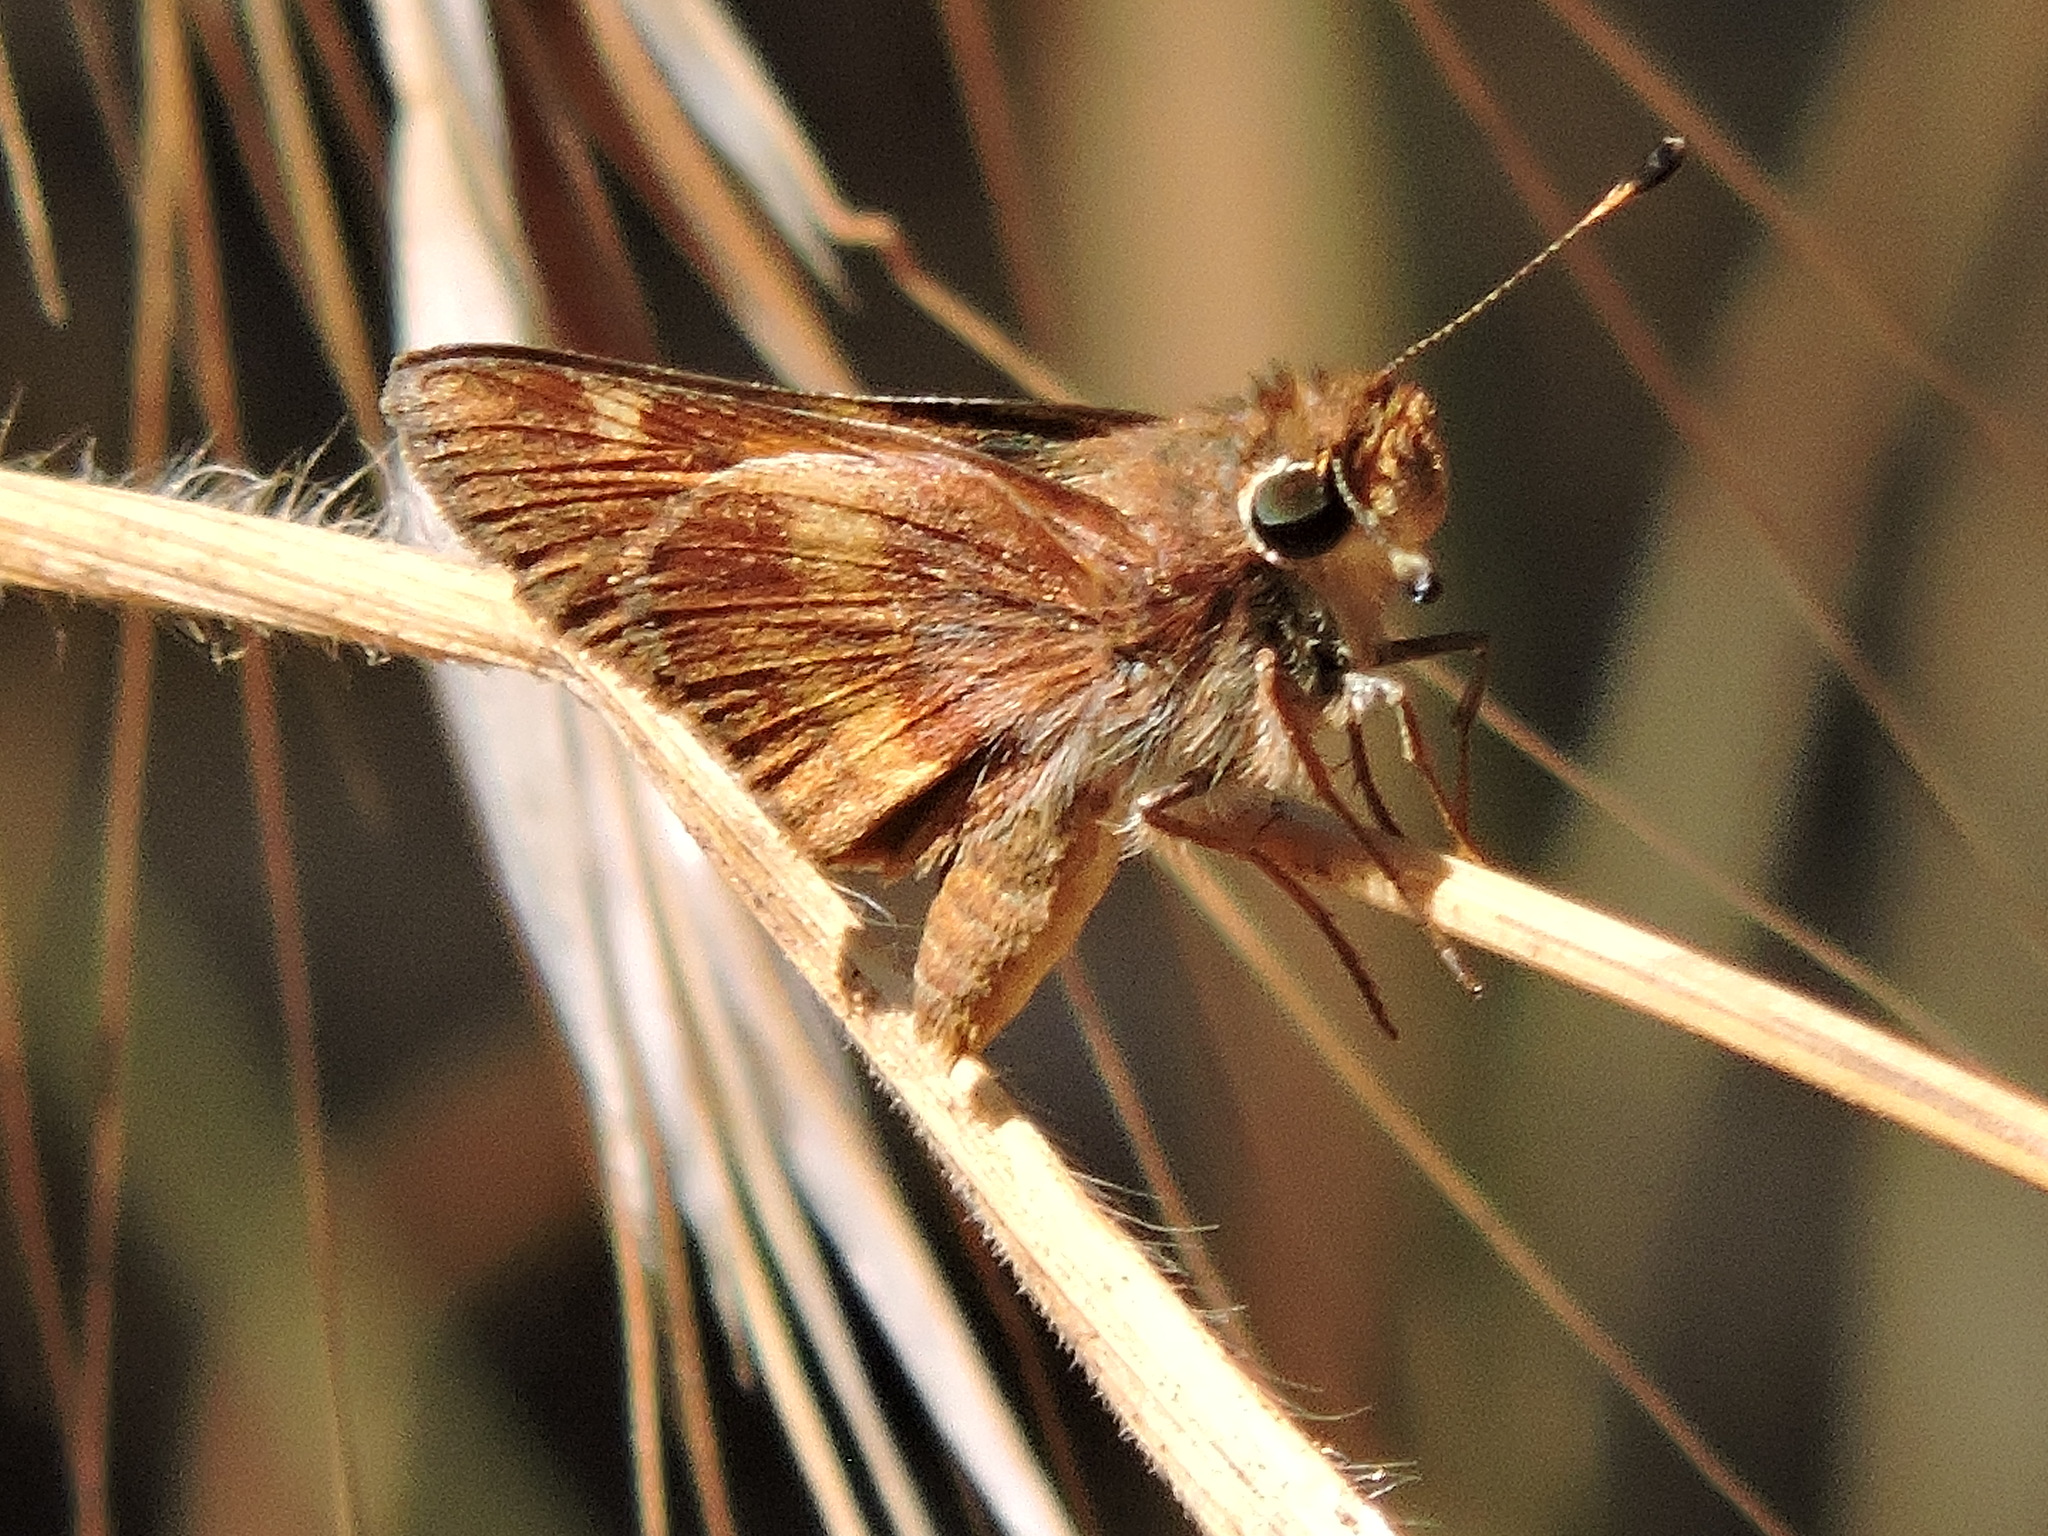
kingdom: Animalia
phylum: Arthropoda
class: Insecta
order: Lepidoptera
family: Hesperiidae
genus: Lon
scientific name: Lon melane
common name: Umber skipper
